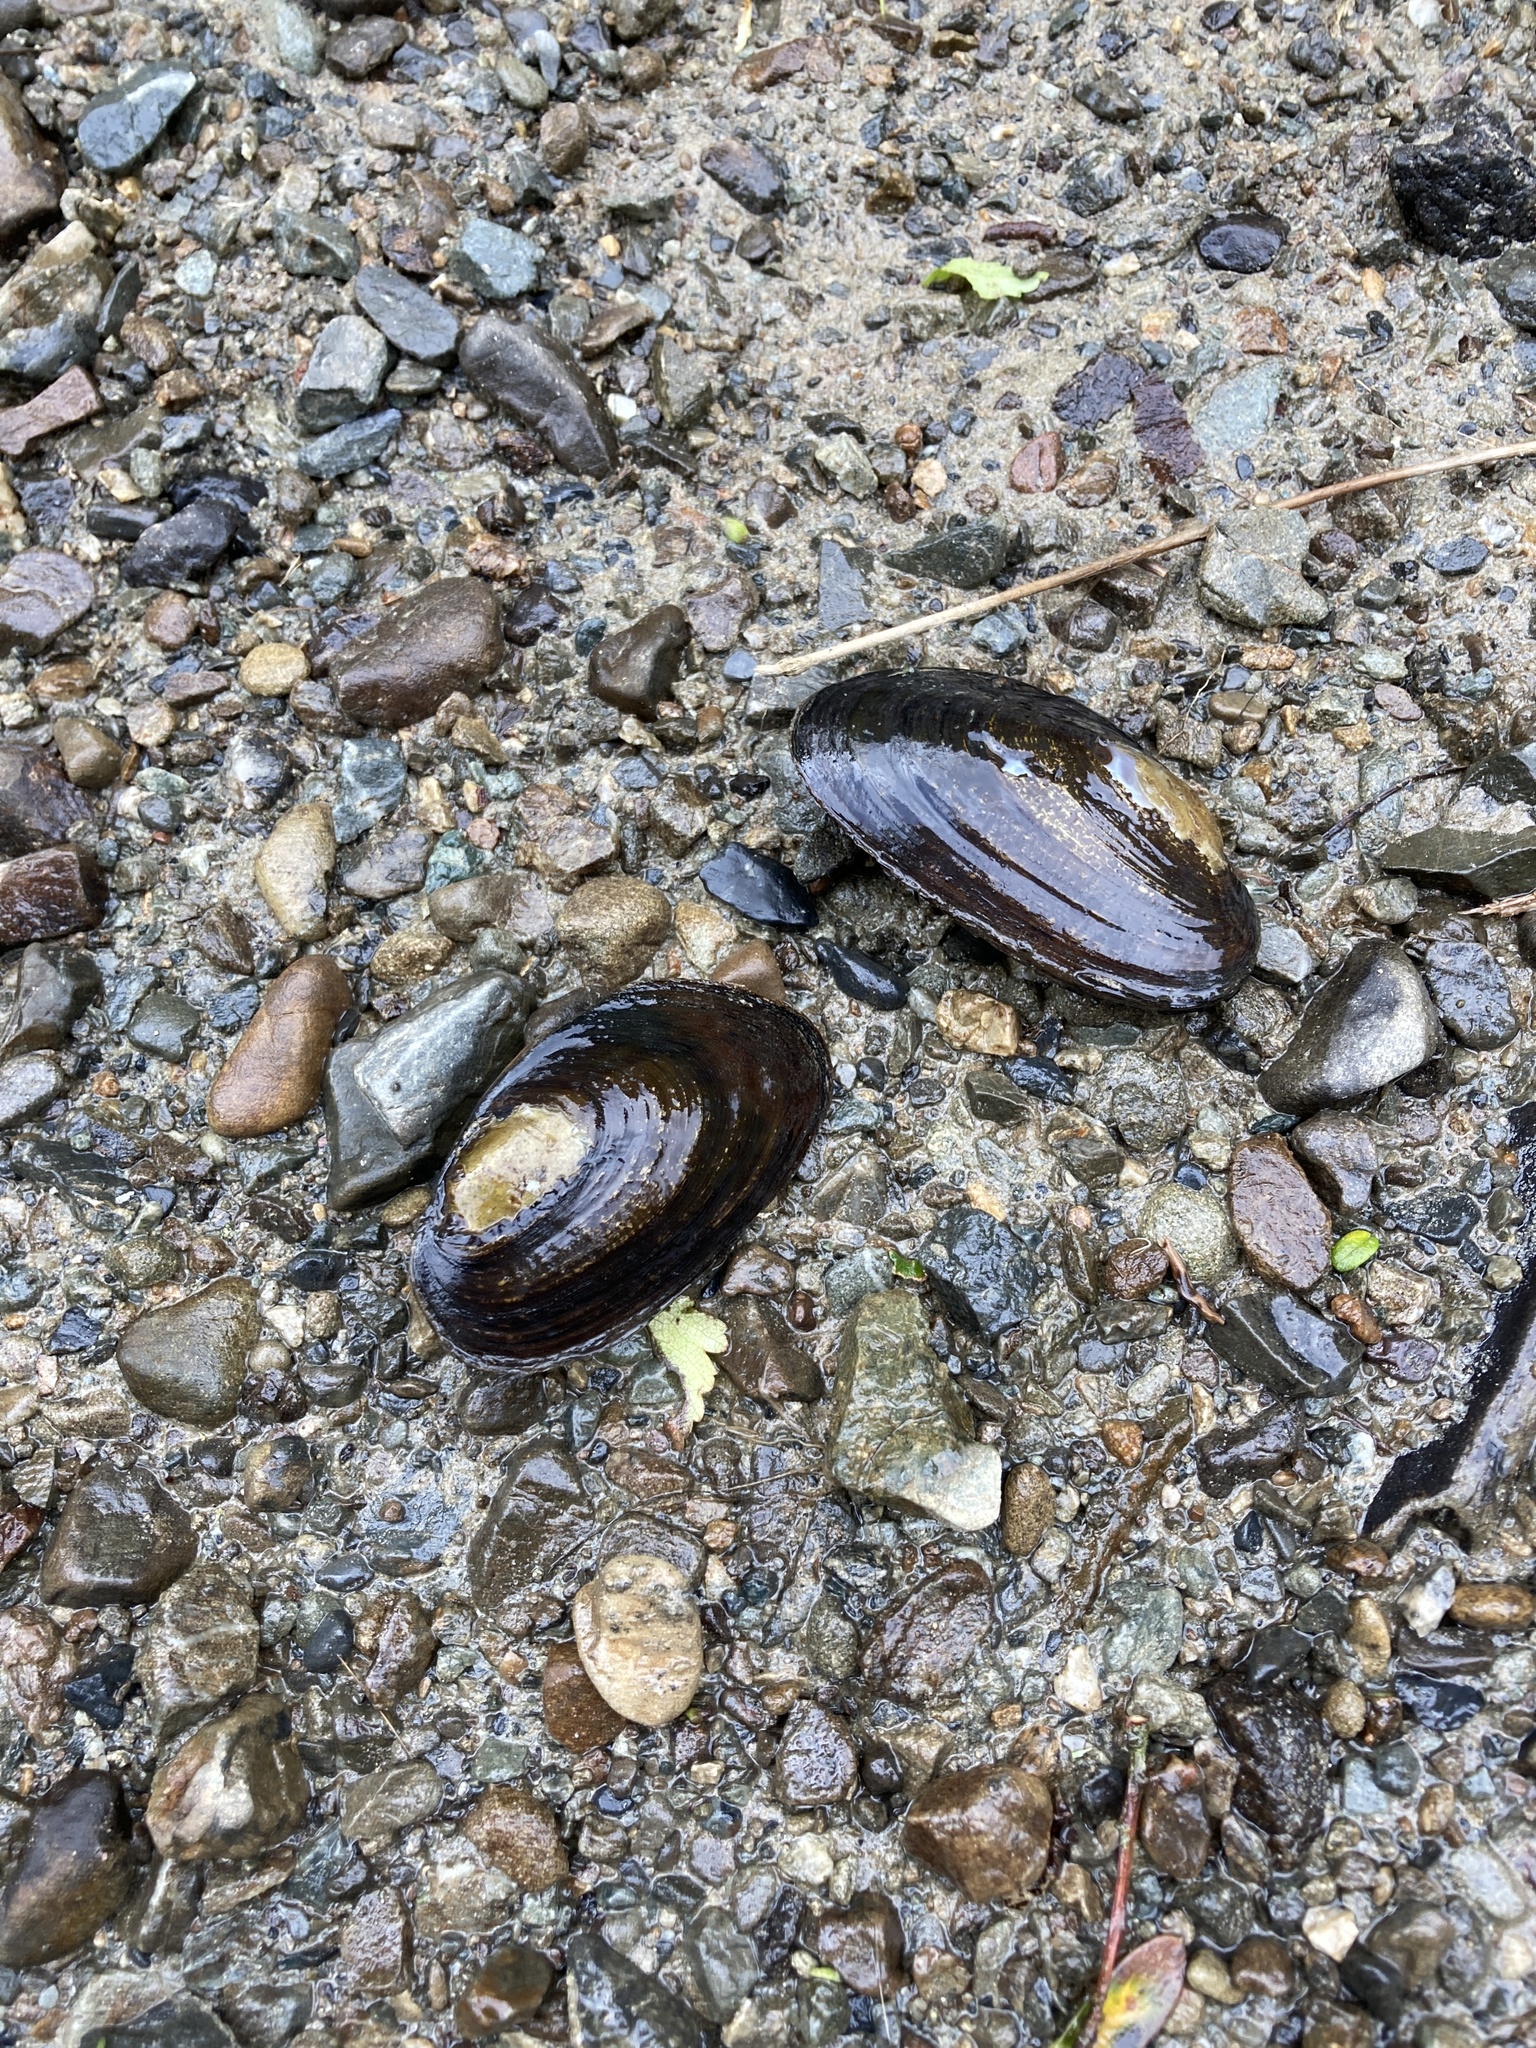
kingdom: Animalia
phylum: Mollusca
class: Bivalvia
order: Unionida
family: Hyriidae
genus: Echyridella
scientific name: Echyridella menziesii
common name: New zealand freshwater mussel
